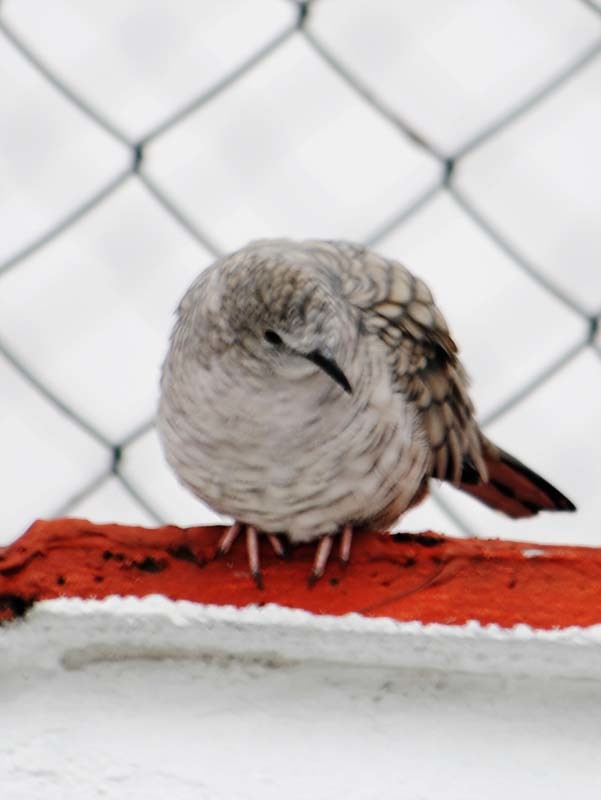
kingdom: Animalia
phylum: Chordata
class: Aves
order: Columbiformes
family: Columbidae
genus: Columbina
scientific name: Columbina inca
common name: Inca dove
